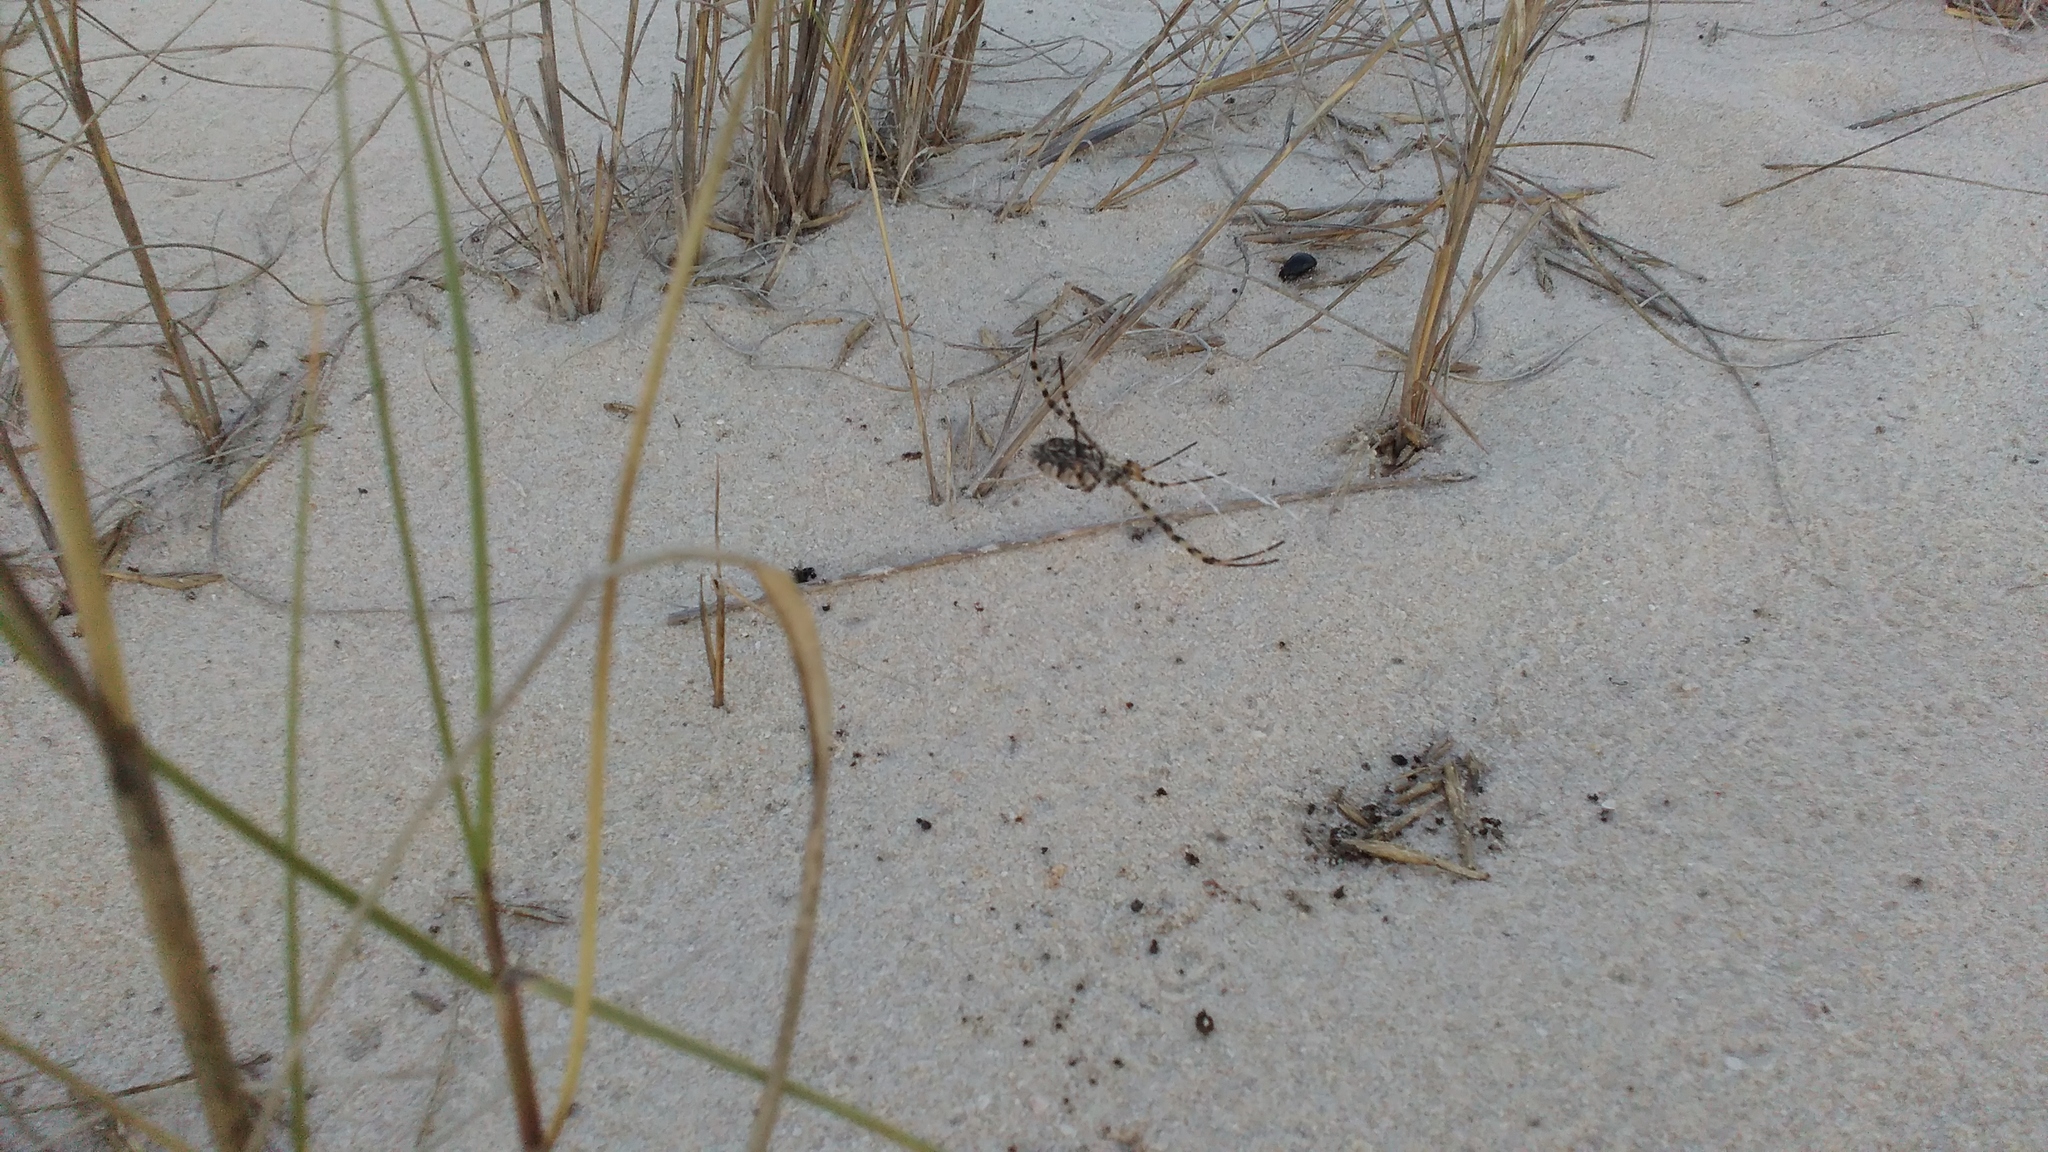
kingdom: Animalia
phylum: Arthropoda
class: Arachnida
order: Araneae
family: Araneidae
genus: Argiope
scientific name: Argiope lobata
